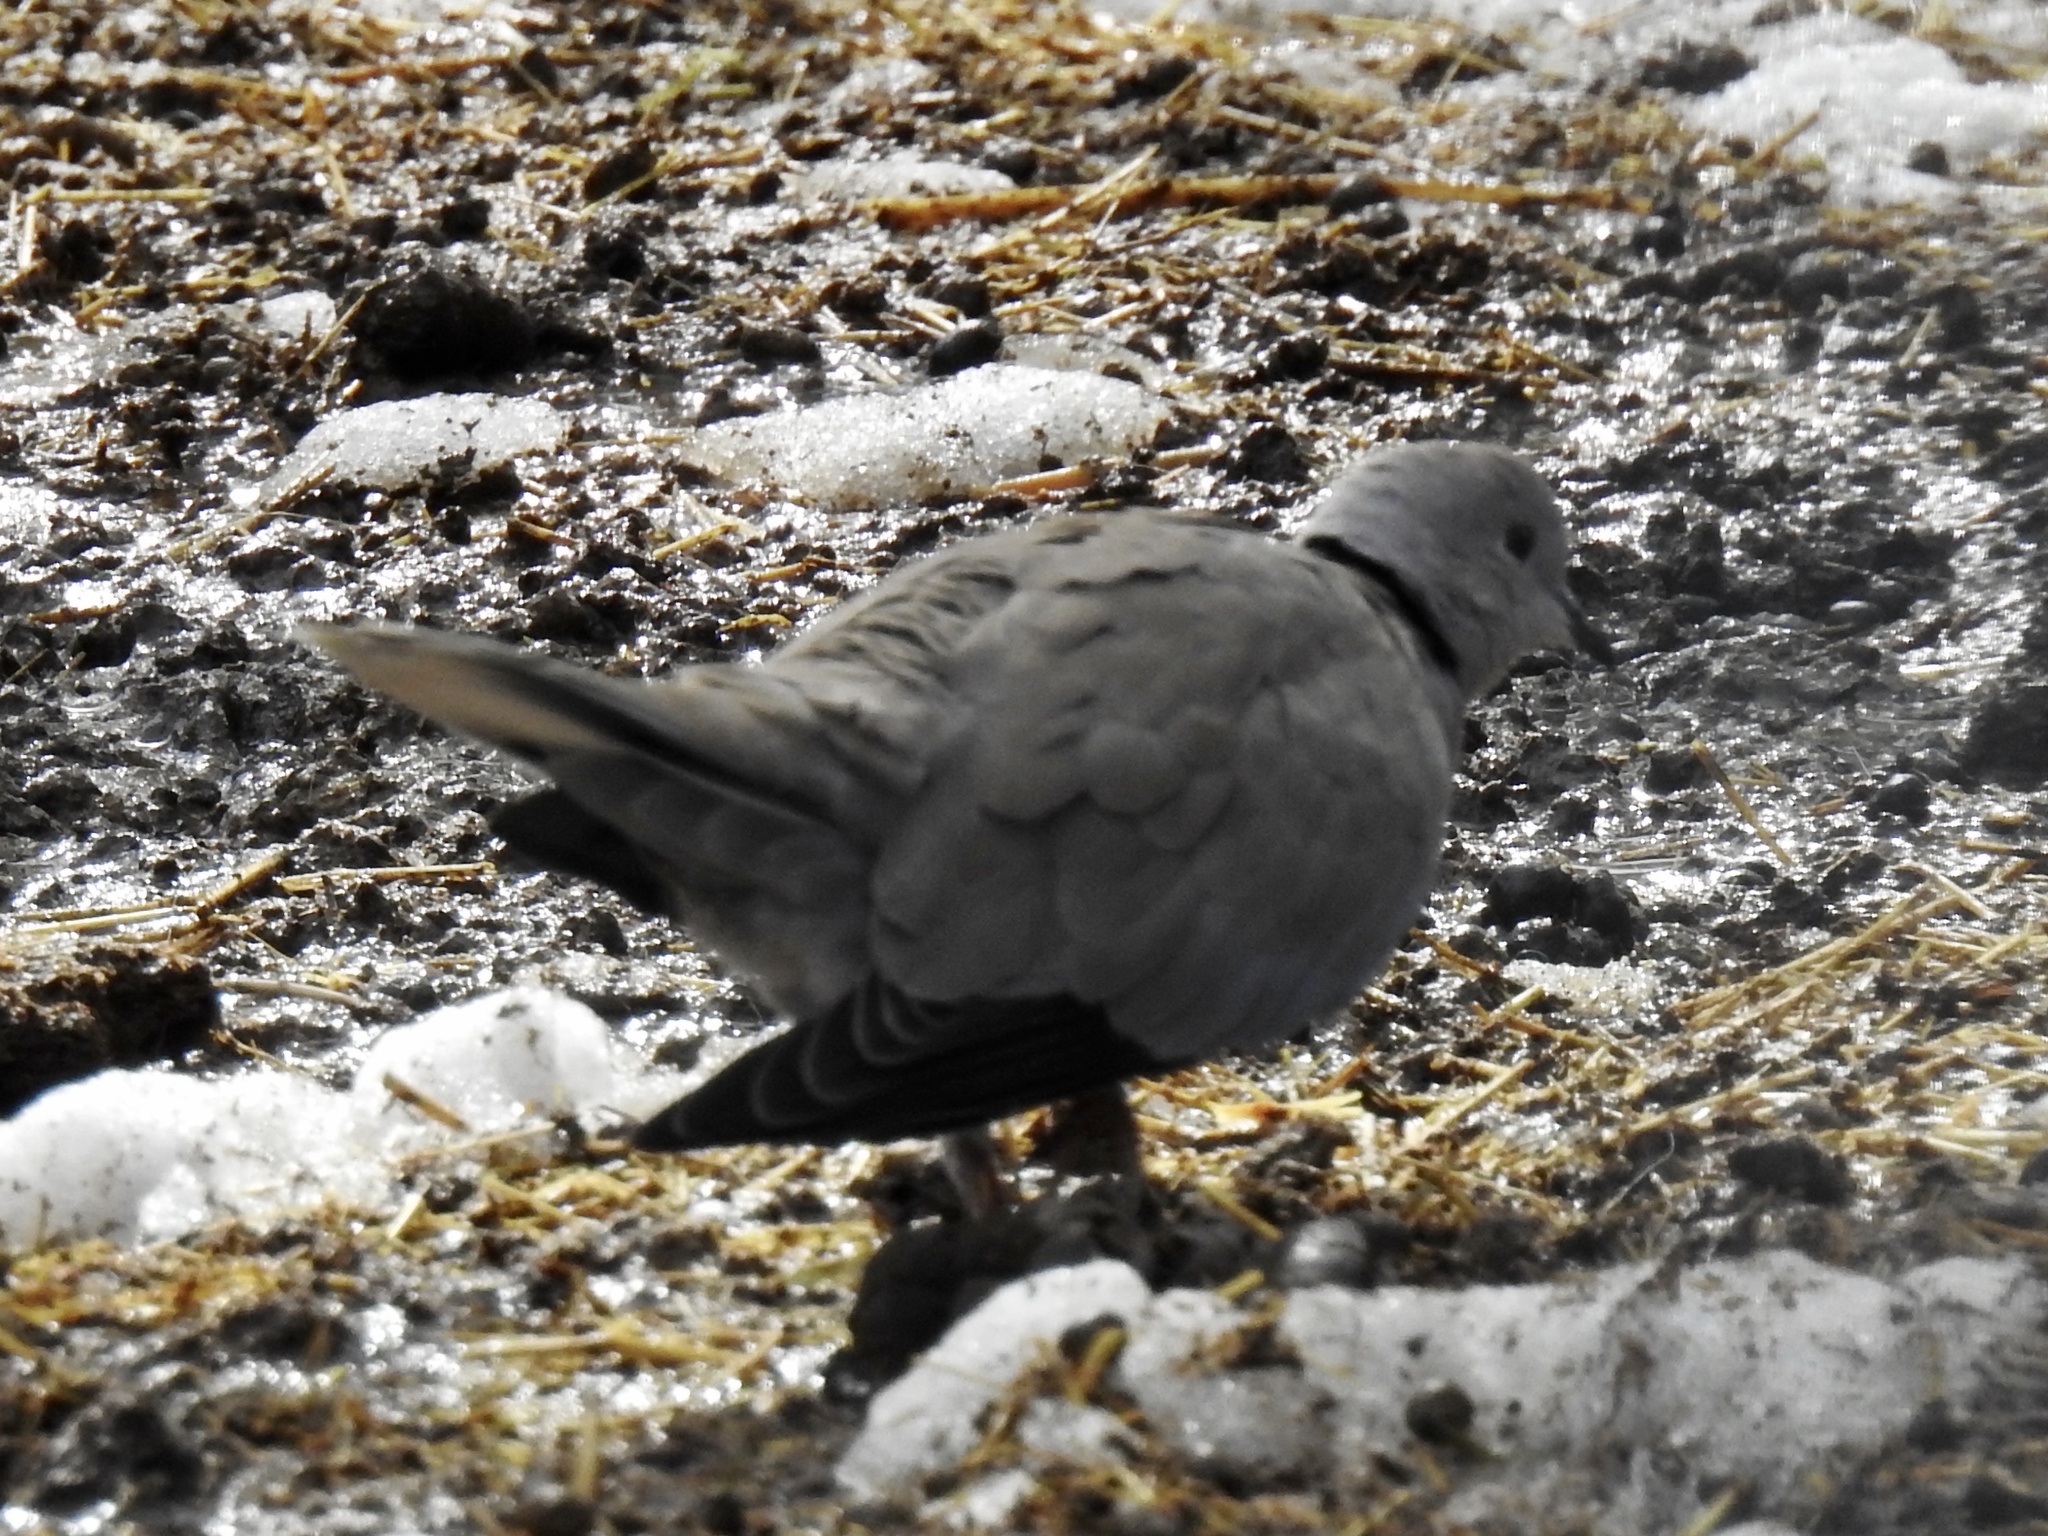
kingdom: Animalia
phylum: Chordata
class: Aves
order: Columbiformes
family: Columbidae
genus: Streptopelia
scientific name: Streptopelia decaocto
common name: Eurasian collared dove
